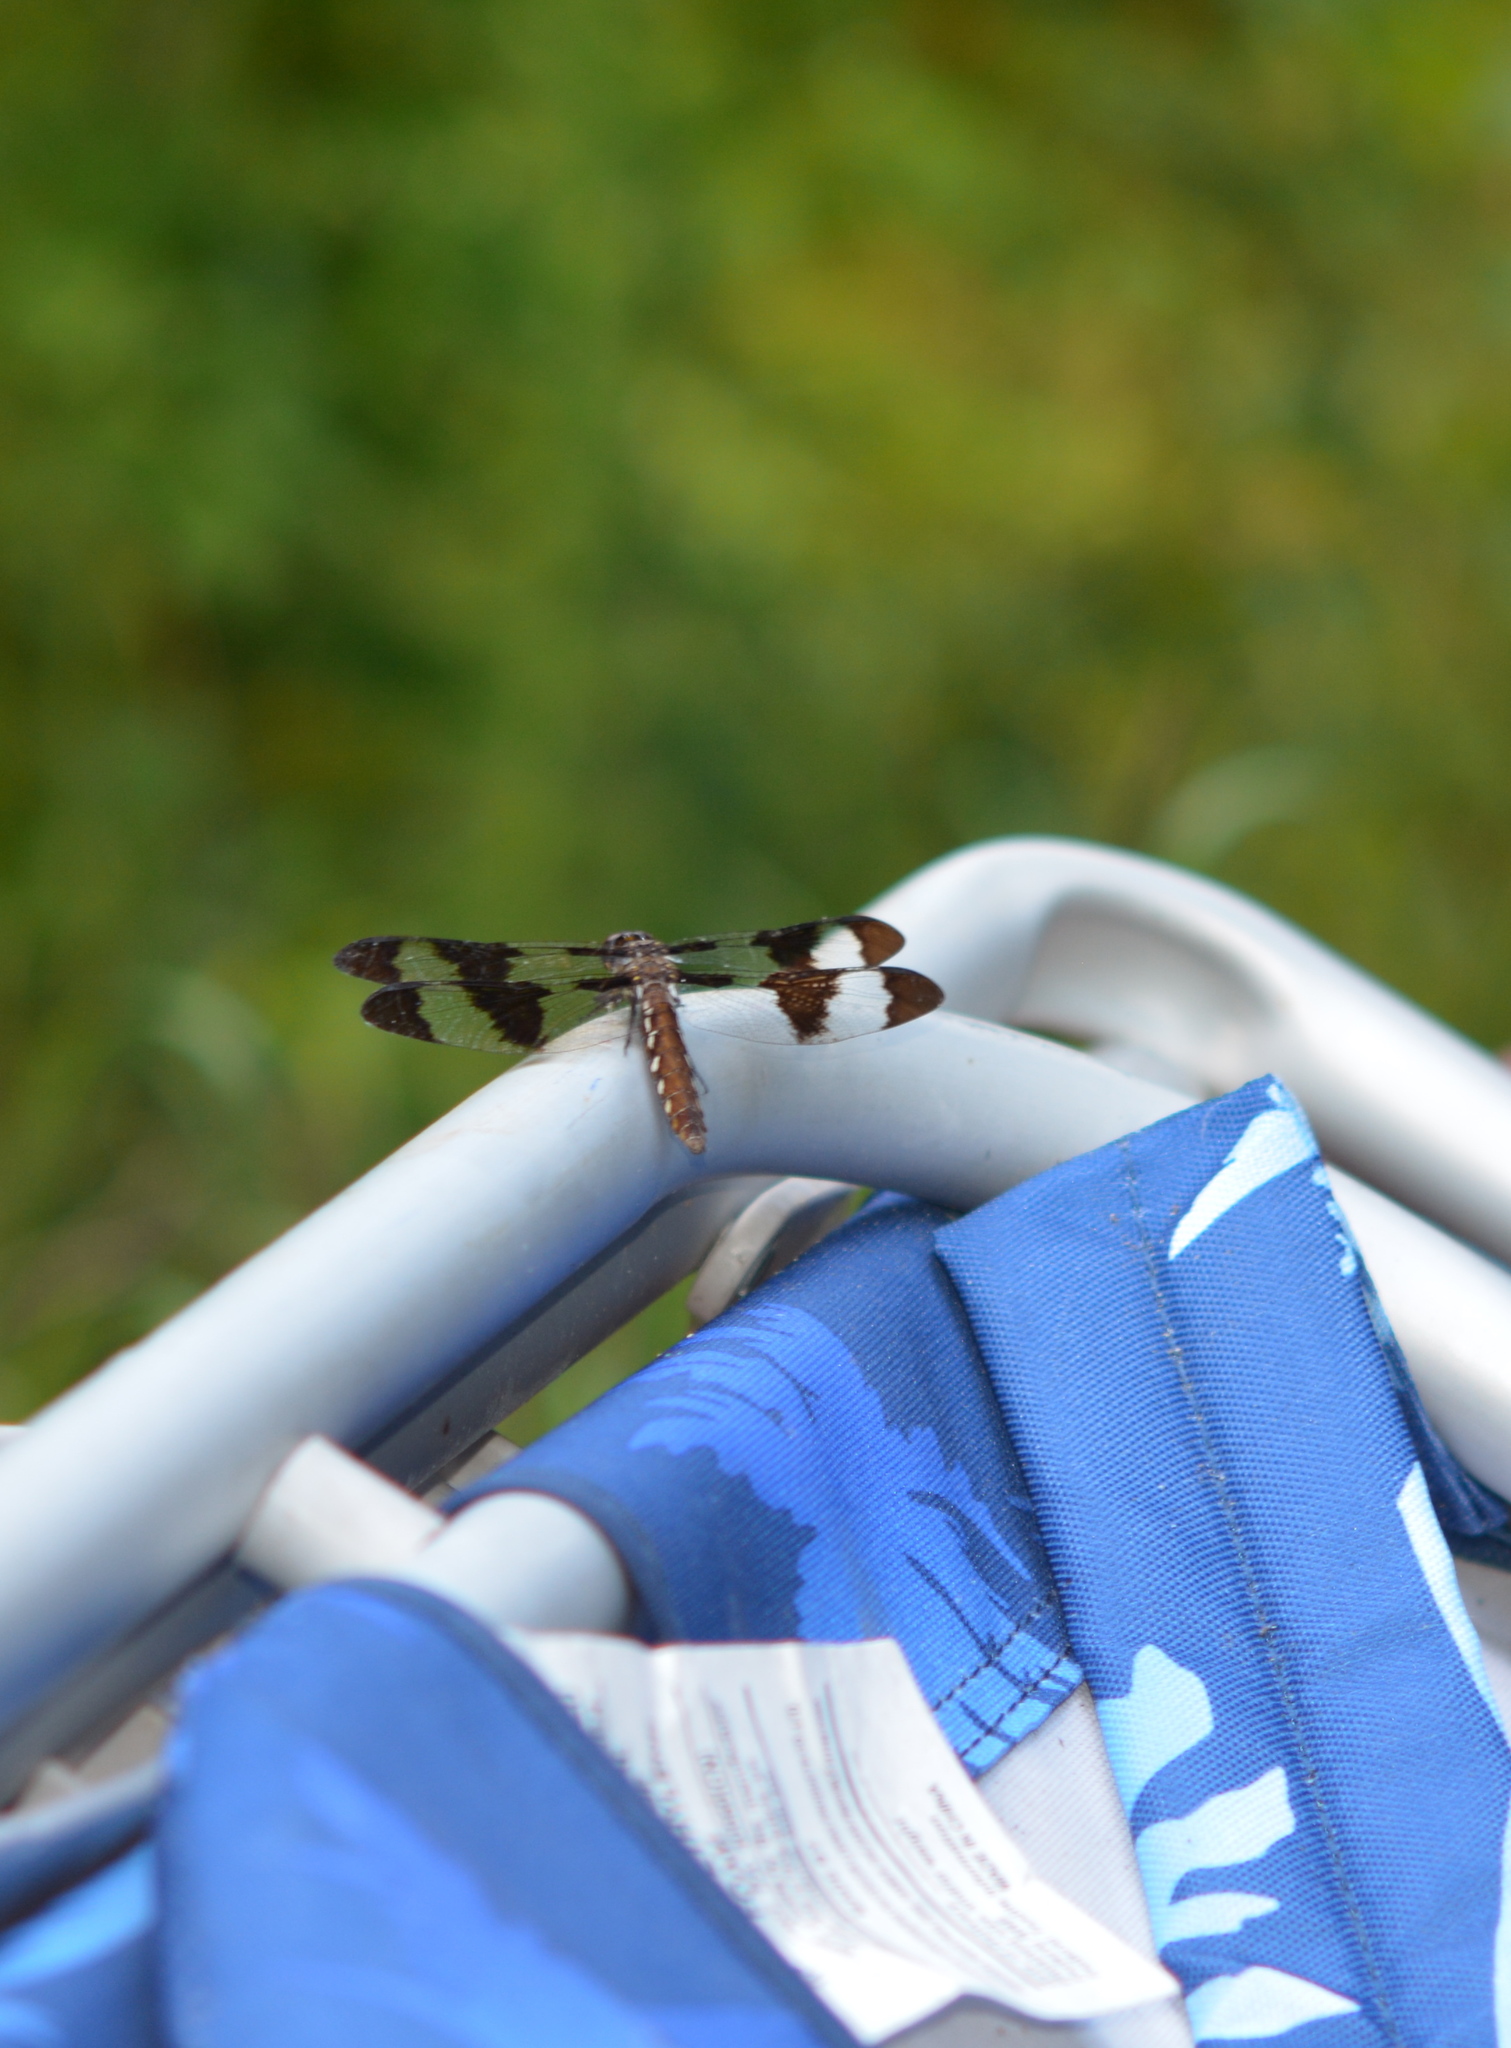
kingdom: Animalia
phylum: Arthropoda
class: Insecta
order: Odonata
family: Libellulidae
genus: Plathemis
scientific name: Plathemis lydia
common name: Common whitetail
